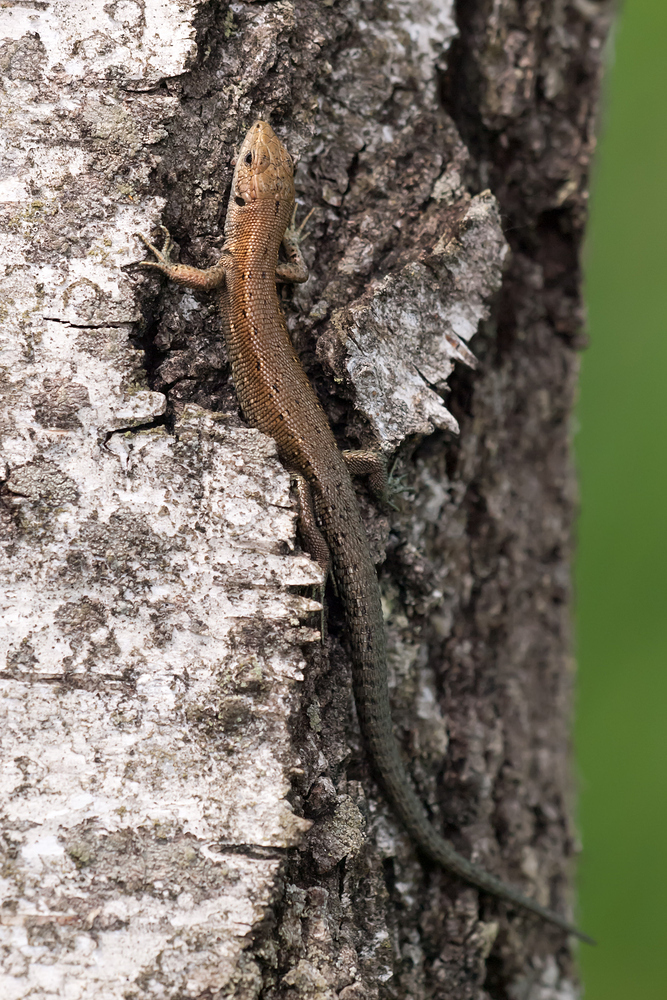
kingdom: Animalia
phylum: Chordata
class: Squamata
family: Lacertidae
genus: Zootoca
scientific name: Zootoca vivipara
